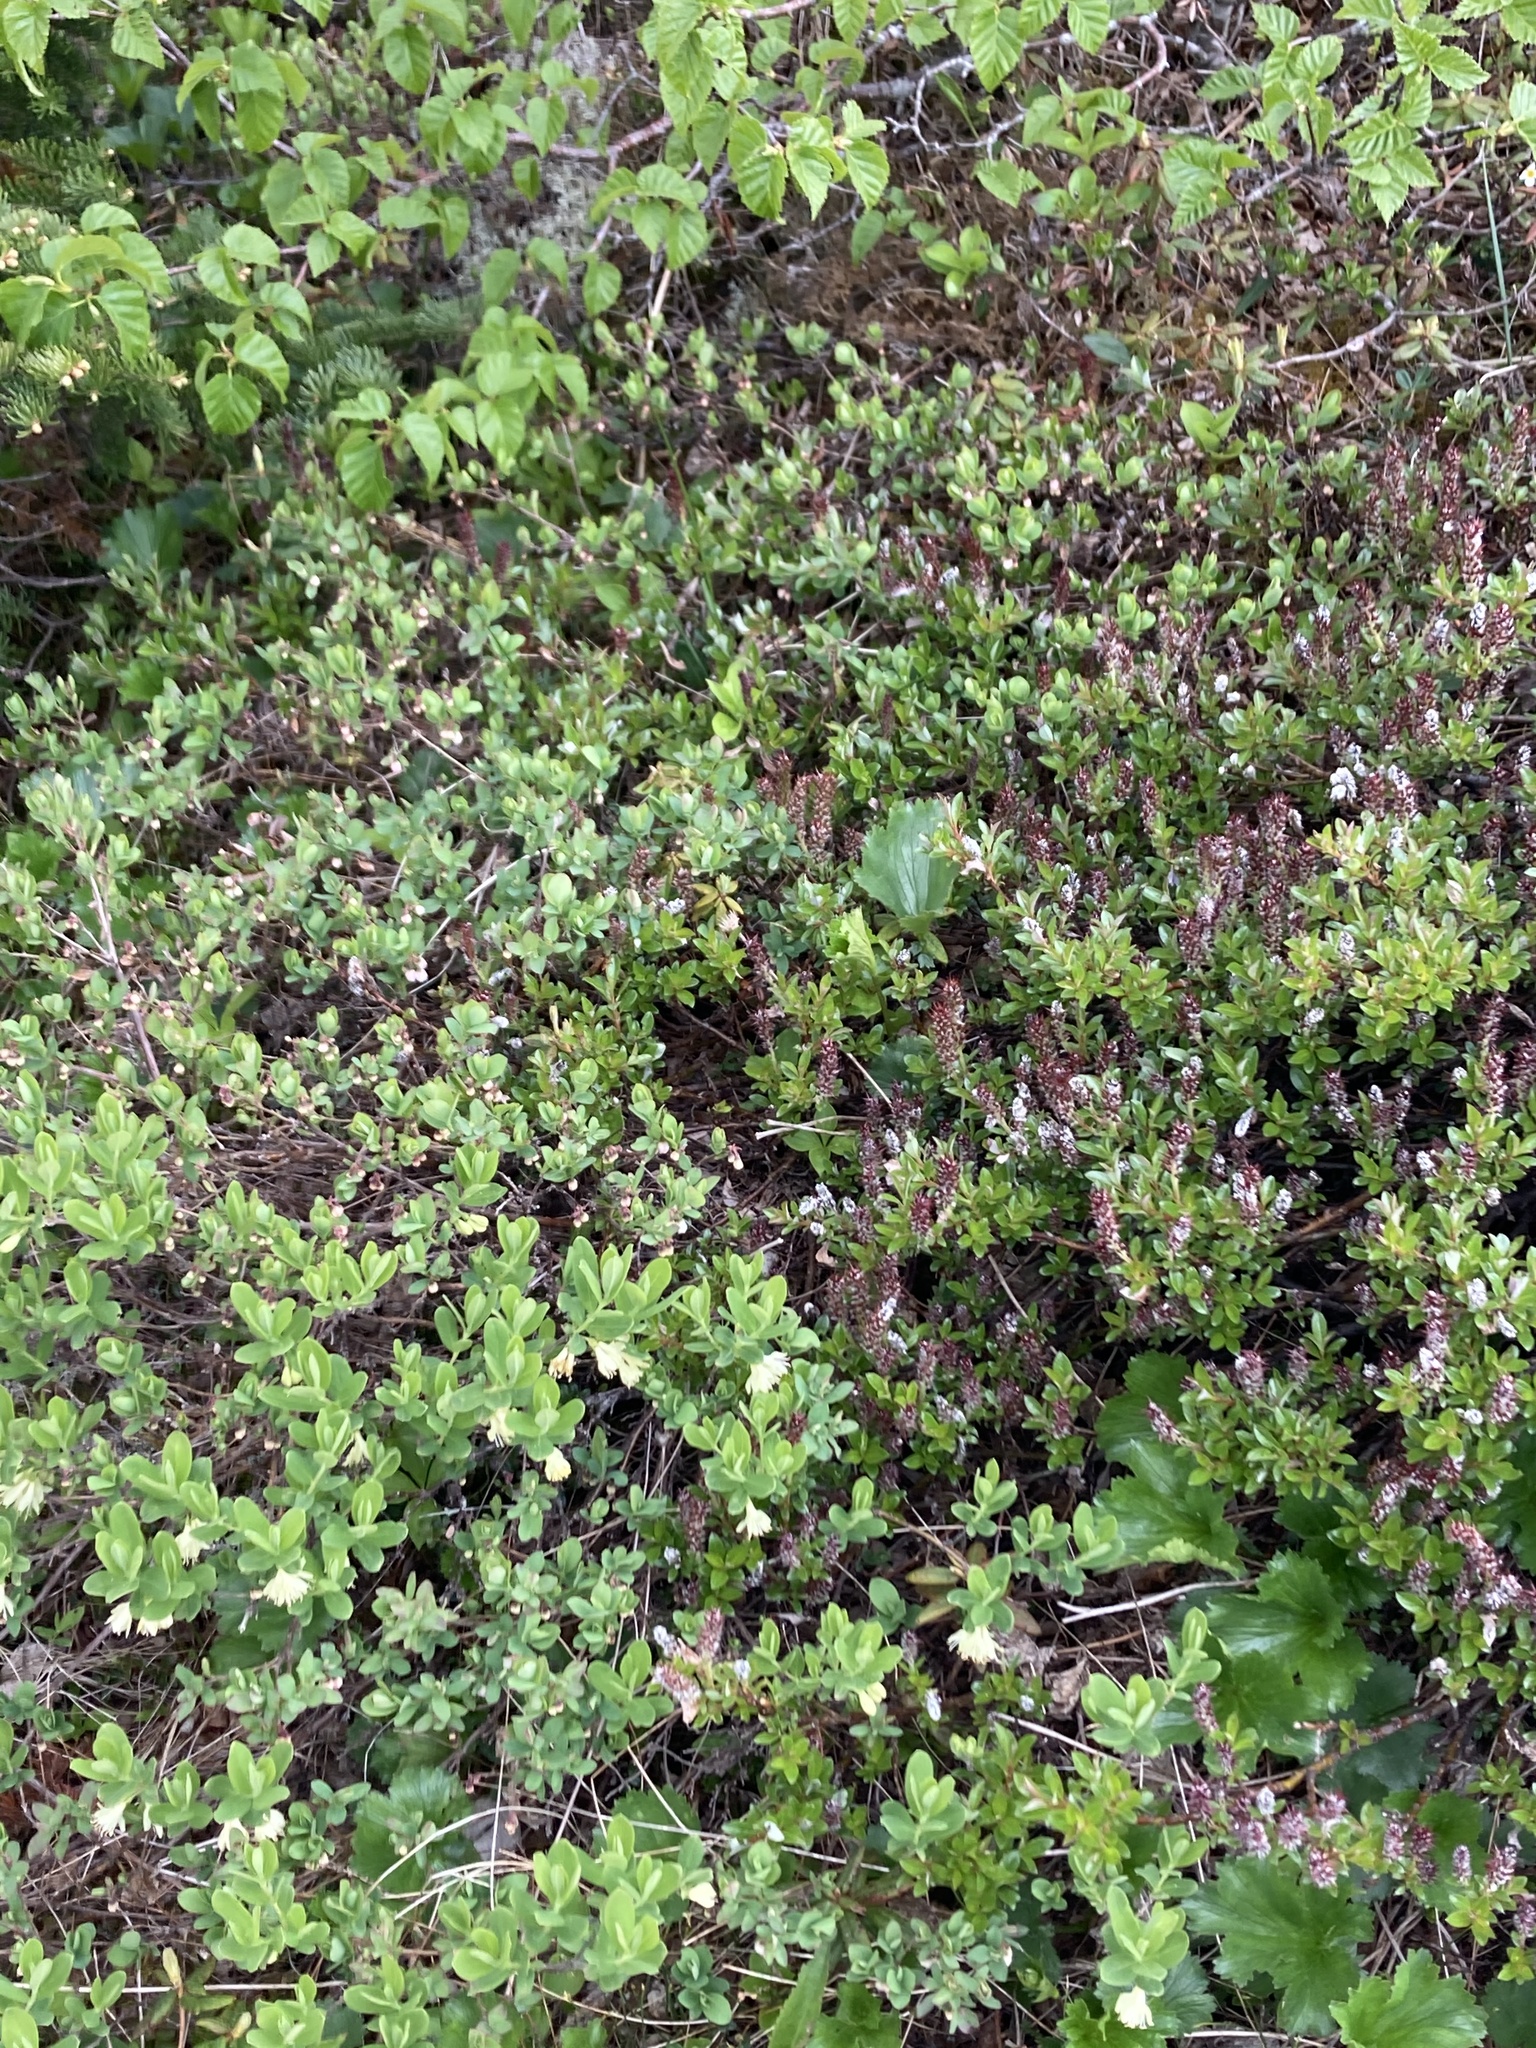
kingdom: Plantae
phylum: Tracheophyta
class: Magnoliopsida
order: Malpighiales
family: Salicaceae
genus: Salix
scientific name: Salix uva-ursi
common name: Bearberry willow
